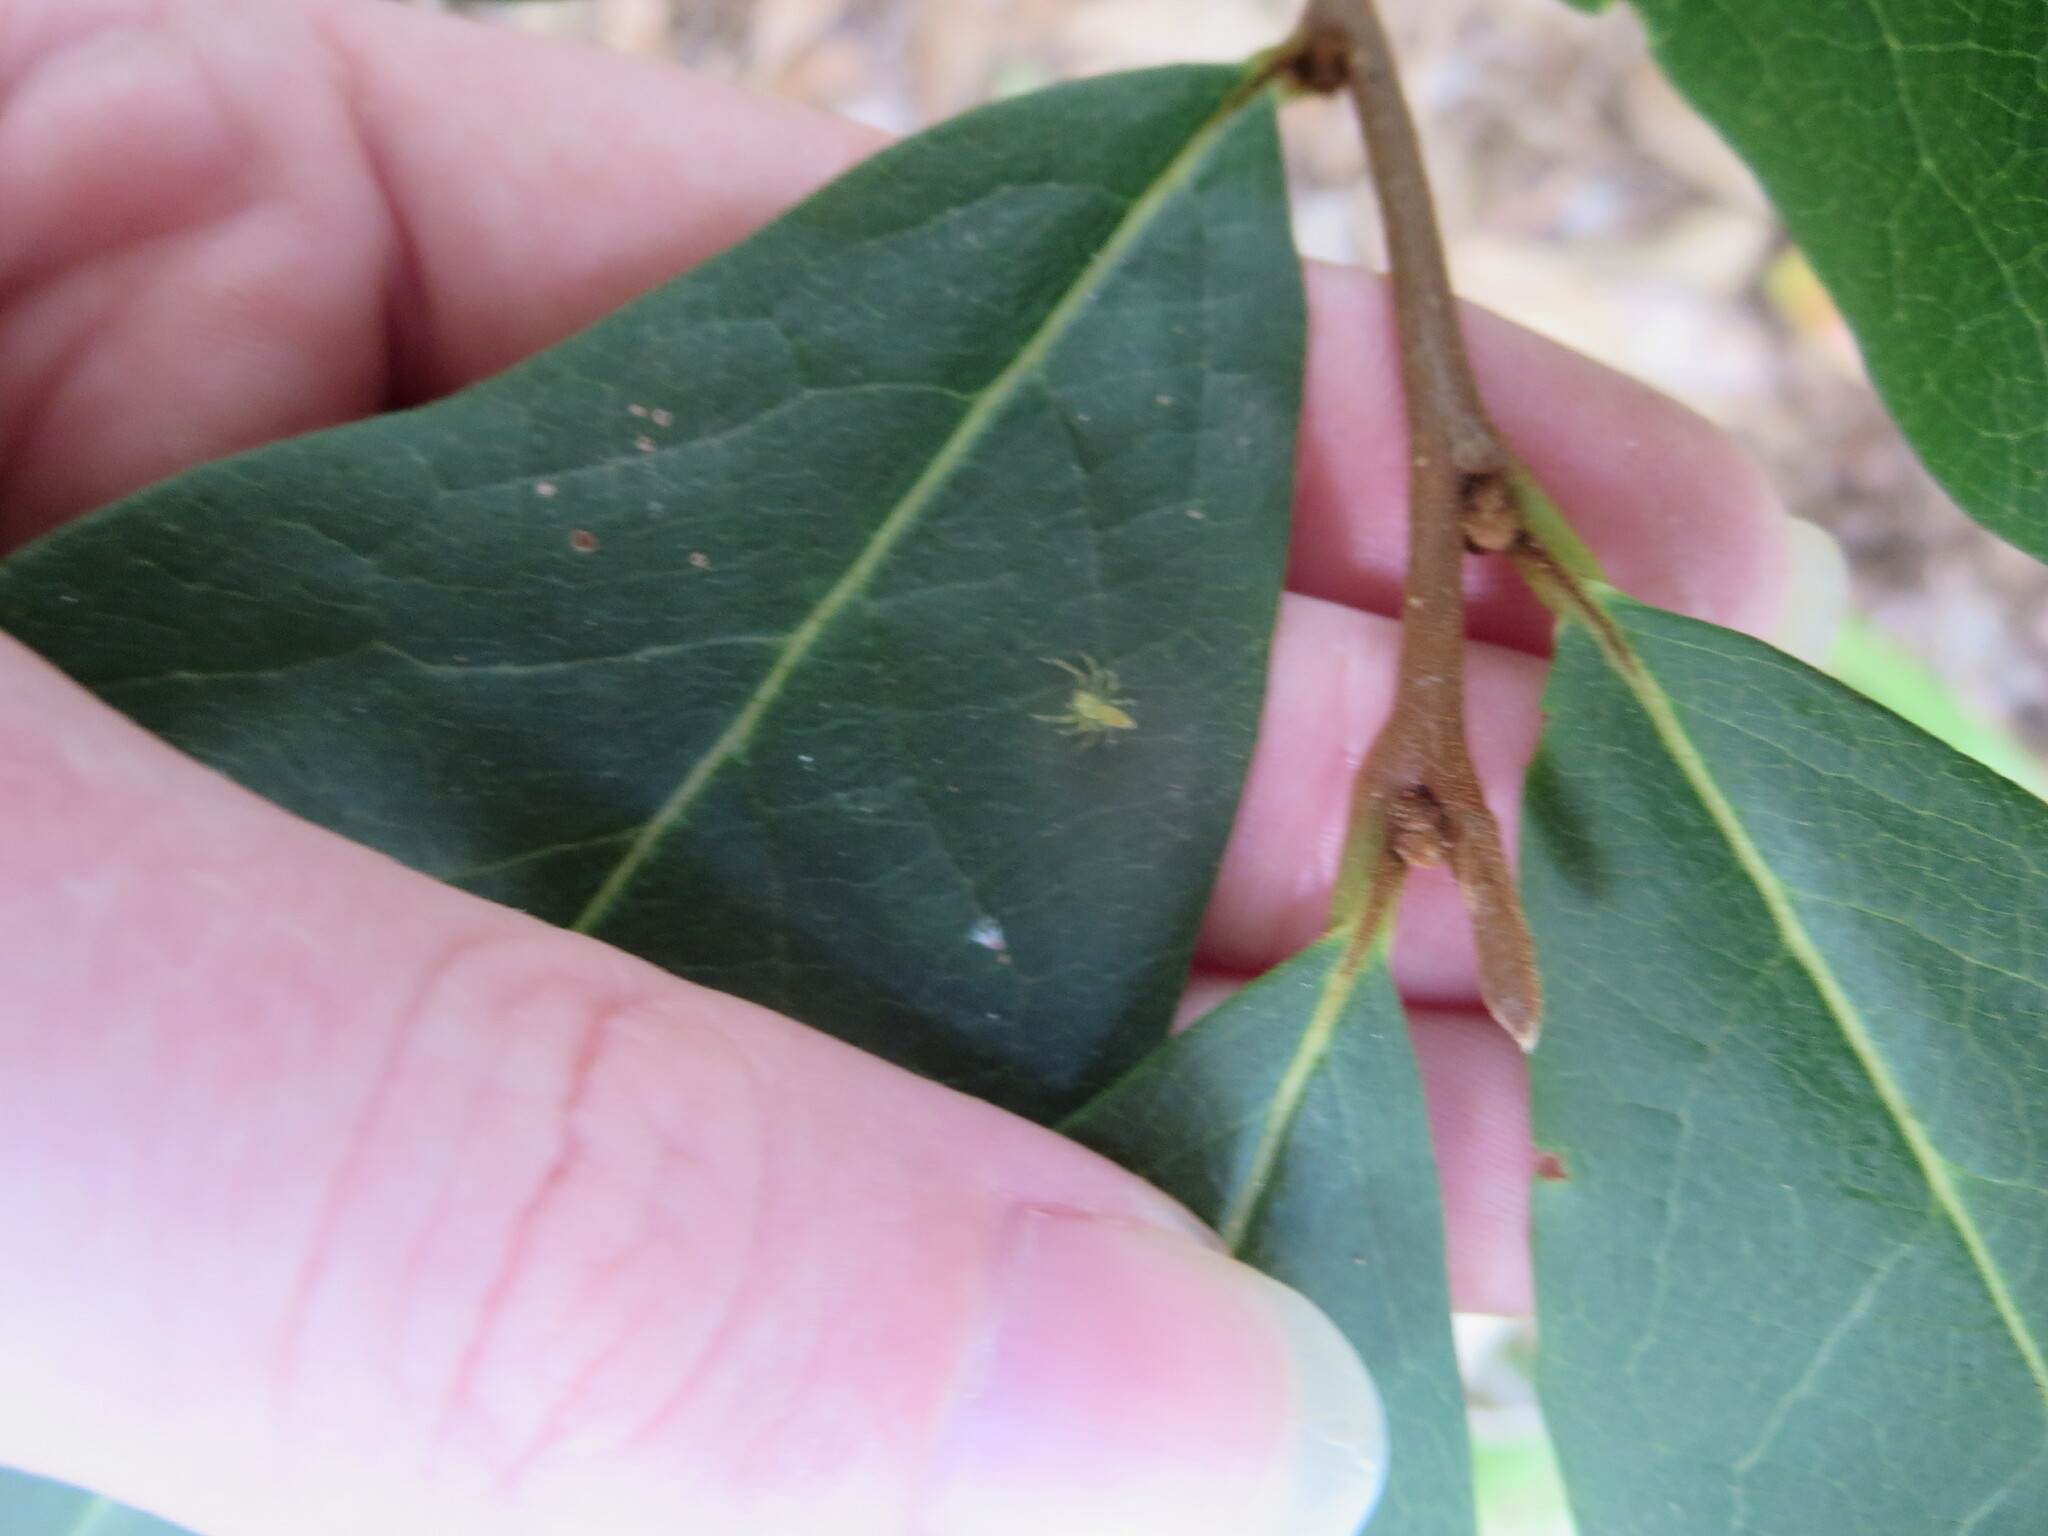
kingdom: Animalia
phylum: Arthropoda
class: Arachnida
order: Araneae
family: Salticidae
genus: Lyssomanes
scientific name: Lyssomanes viridis
